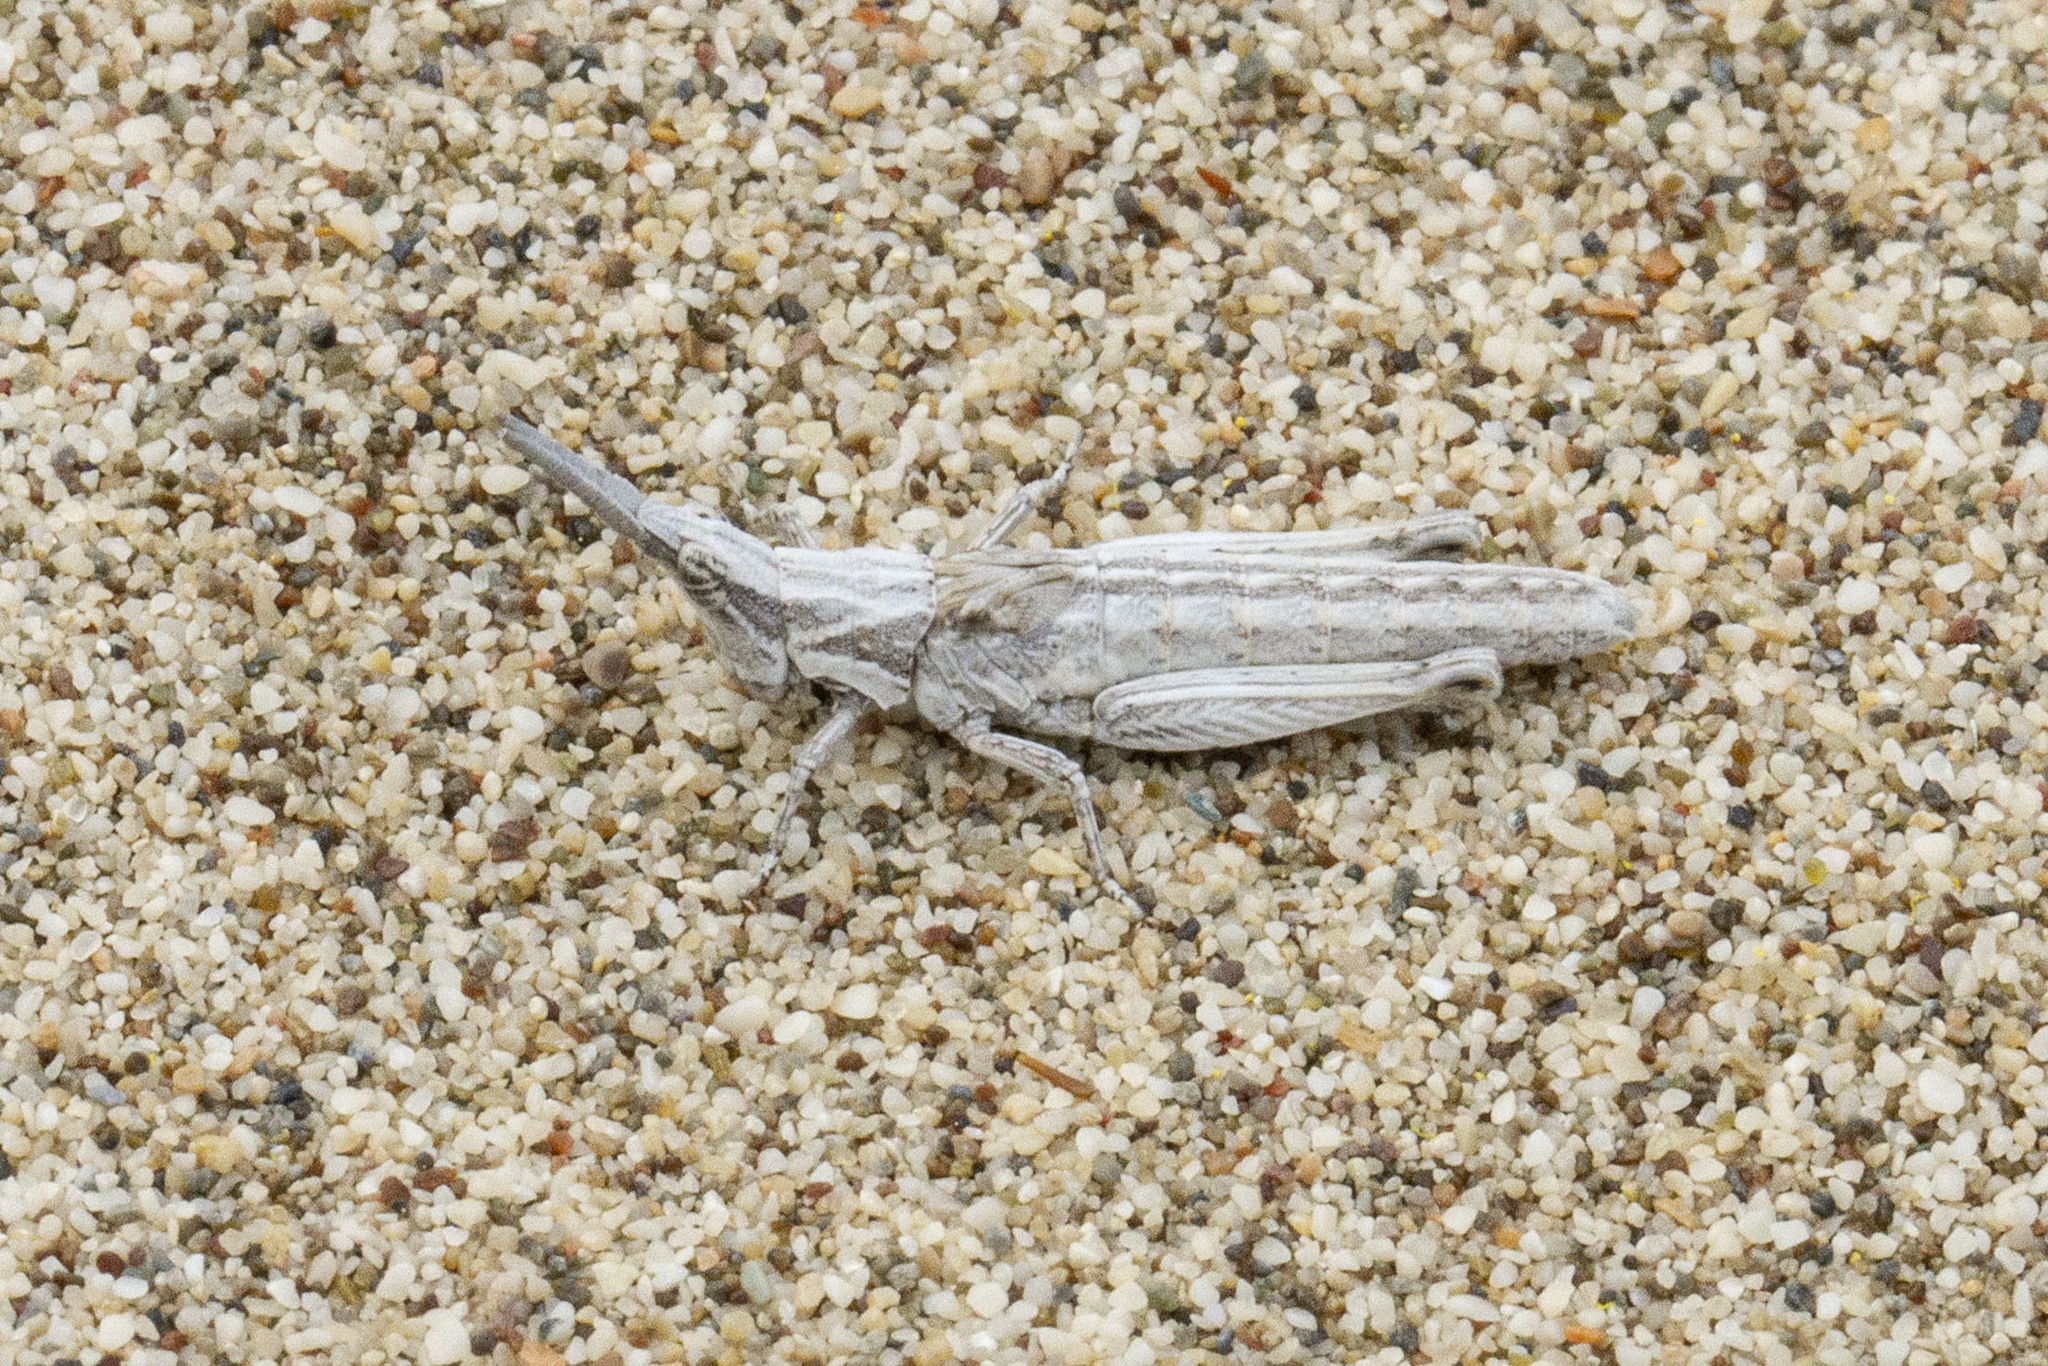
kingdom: Animalia
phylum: Arthropoda
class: Insecta
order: Orthoptera
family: Pyrgomorphidae
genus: Pyrgomorpha
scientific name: Pyrgomorpha conica
